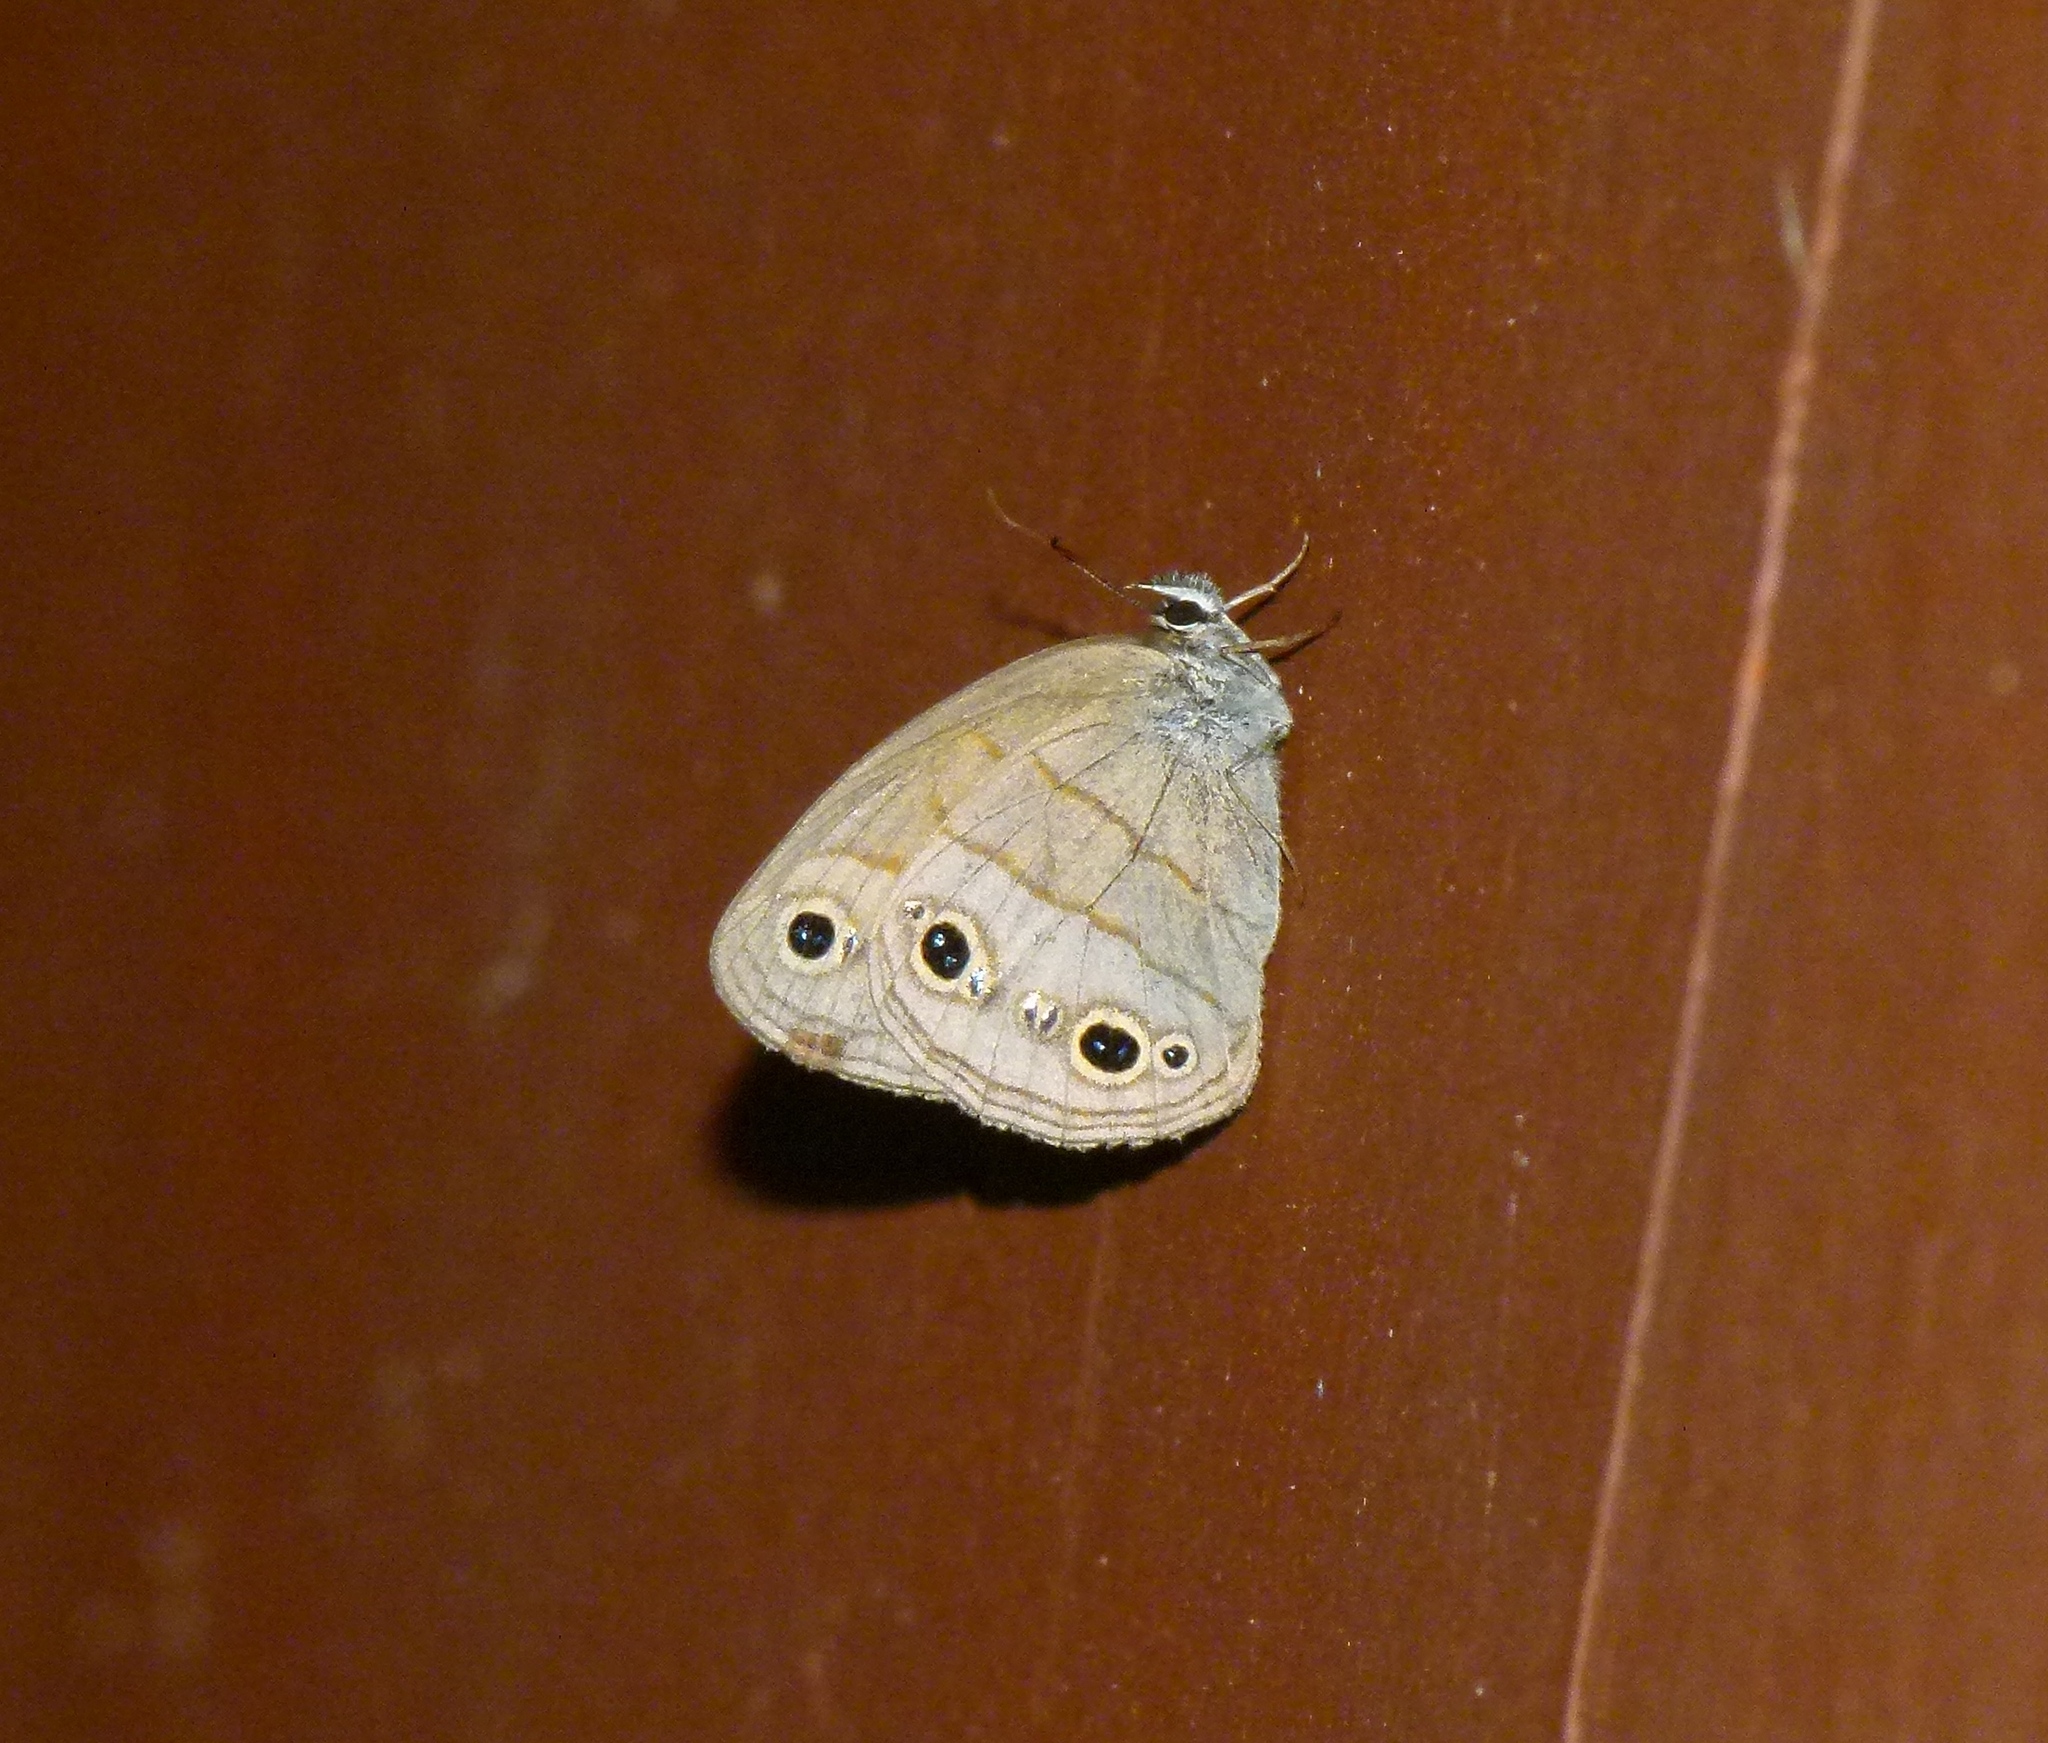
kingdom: Animalia
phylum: Arthropoda
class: Insecta
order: Lepidoptera
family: Nymphalidae
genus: Euptychia
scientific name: Euptychia cymela
